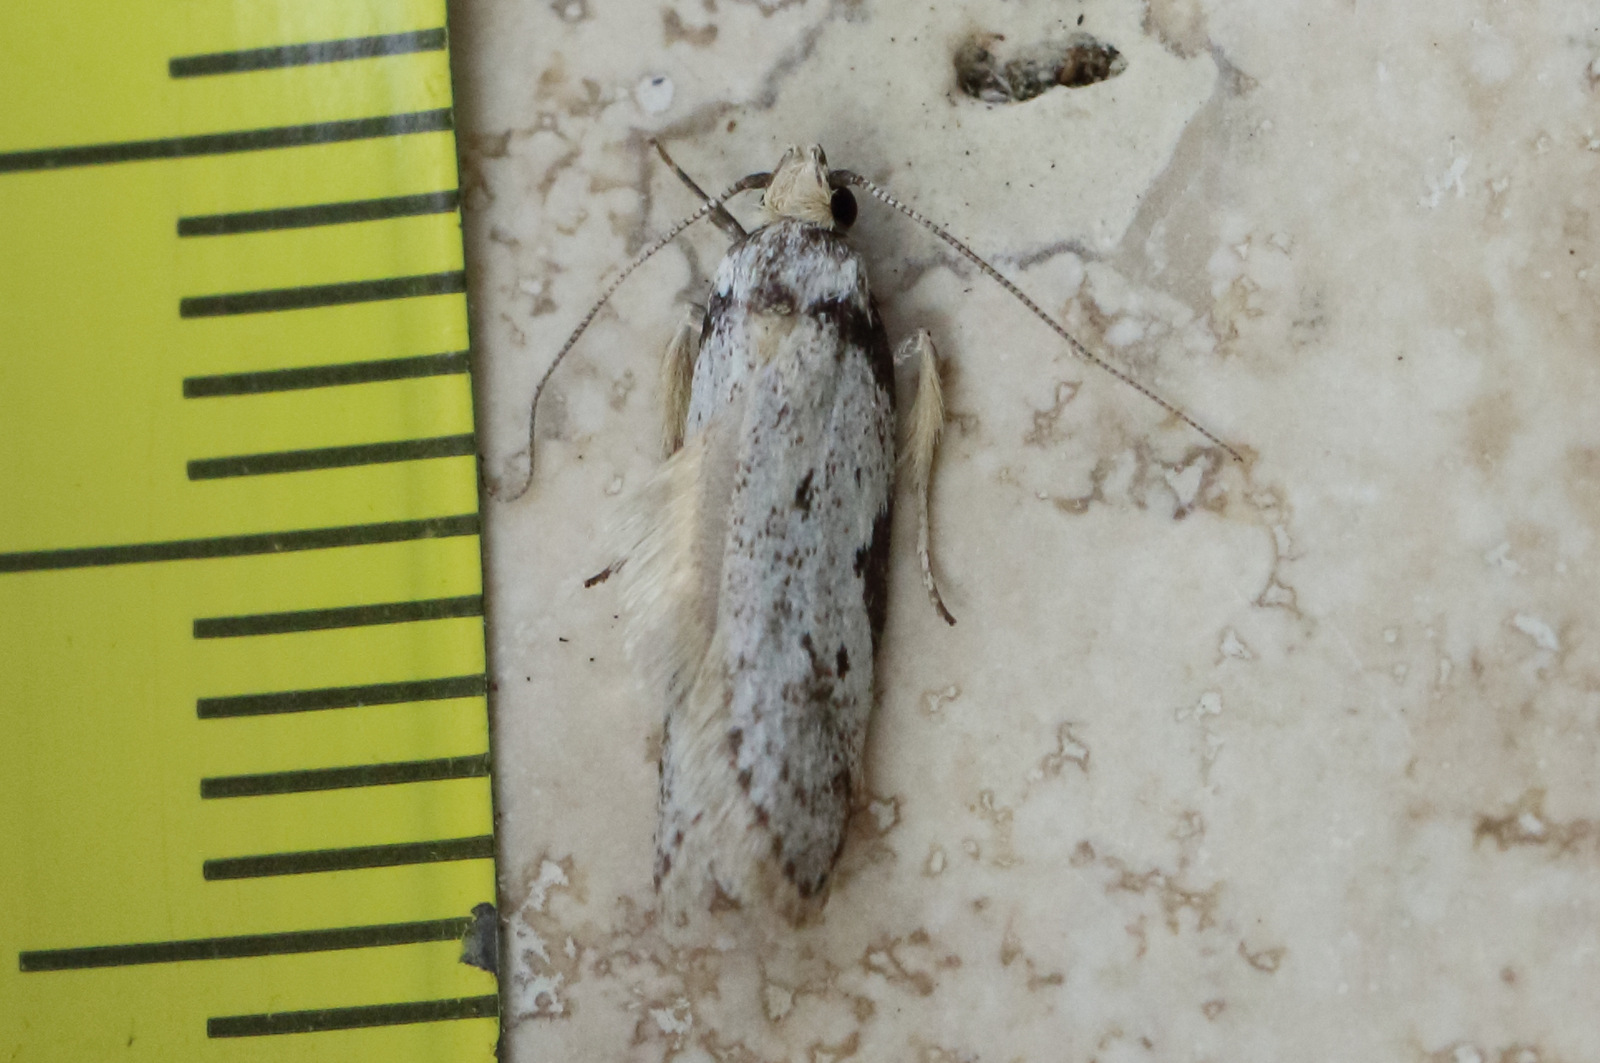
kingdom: Animalia
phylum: Arthropoda
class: Insecta
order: Lepidoptera
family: Oecophoridae
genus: Philobota
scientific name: Philobota transversella
